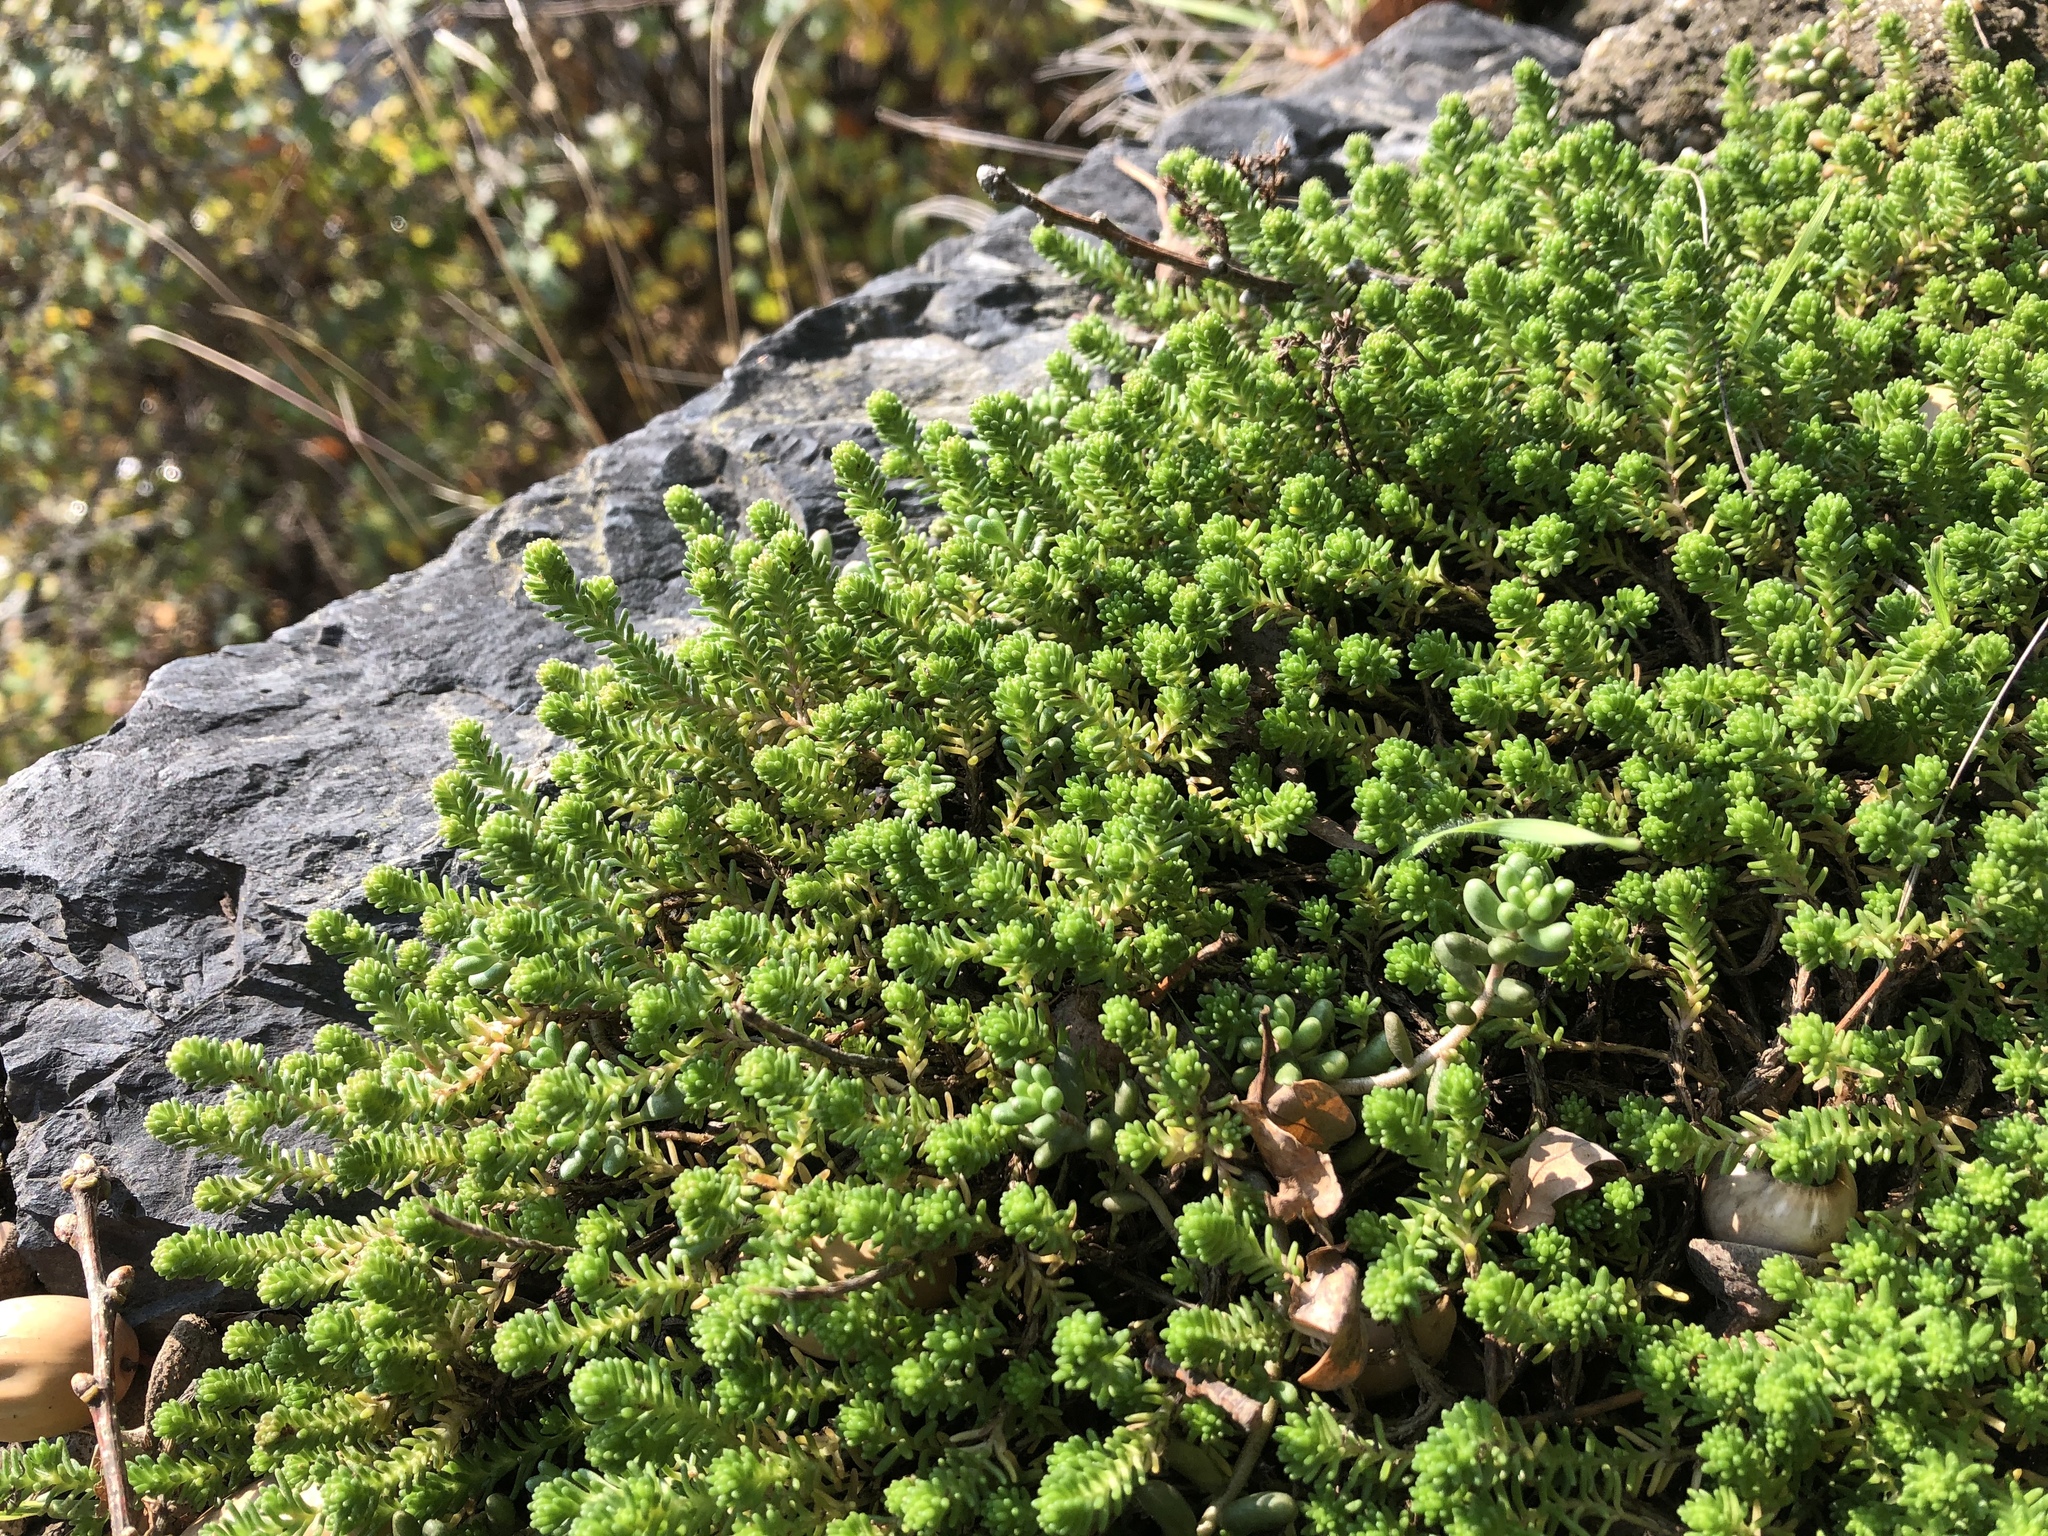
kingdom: Plantae
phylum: Tracheophyta
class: Magnoliopsida
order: Saxifragales
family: Crassulaceae
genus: Sedum
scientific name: Sedum sexangulare
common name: Tasteless stonecrop
